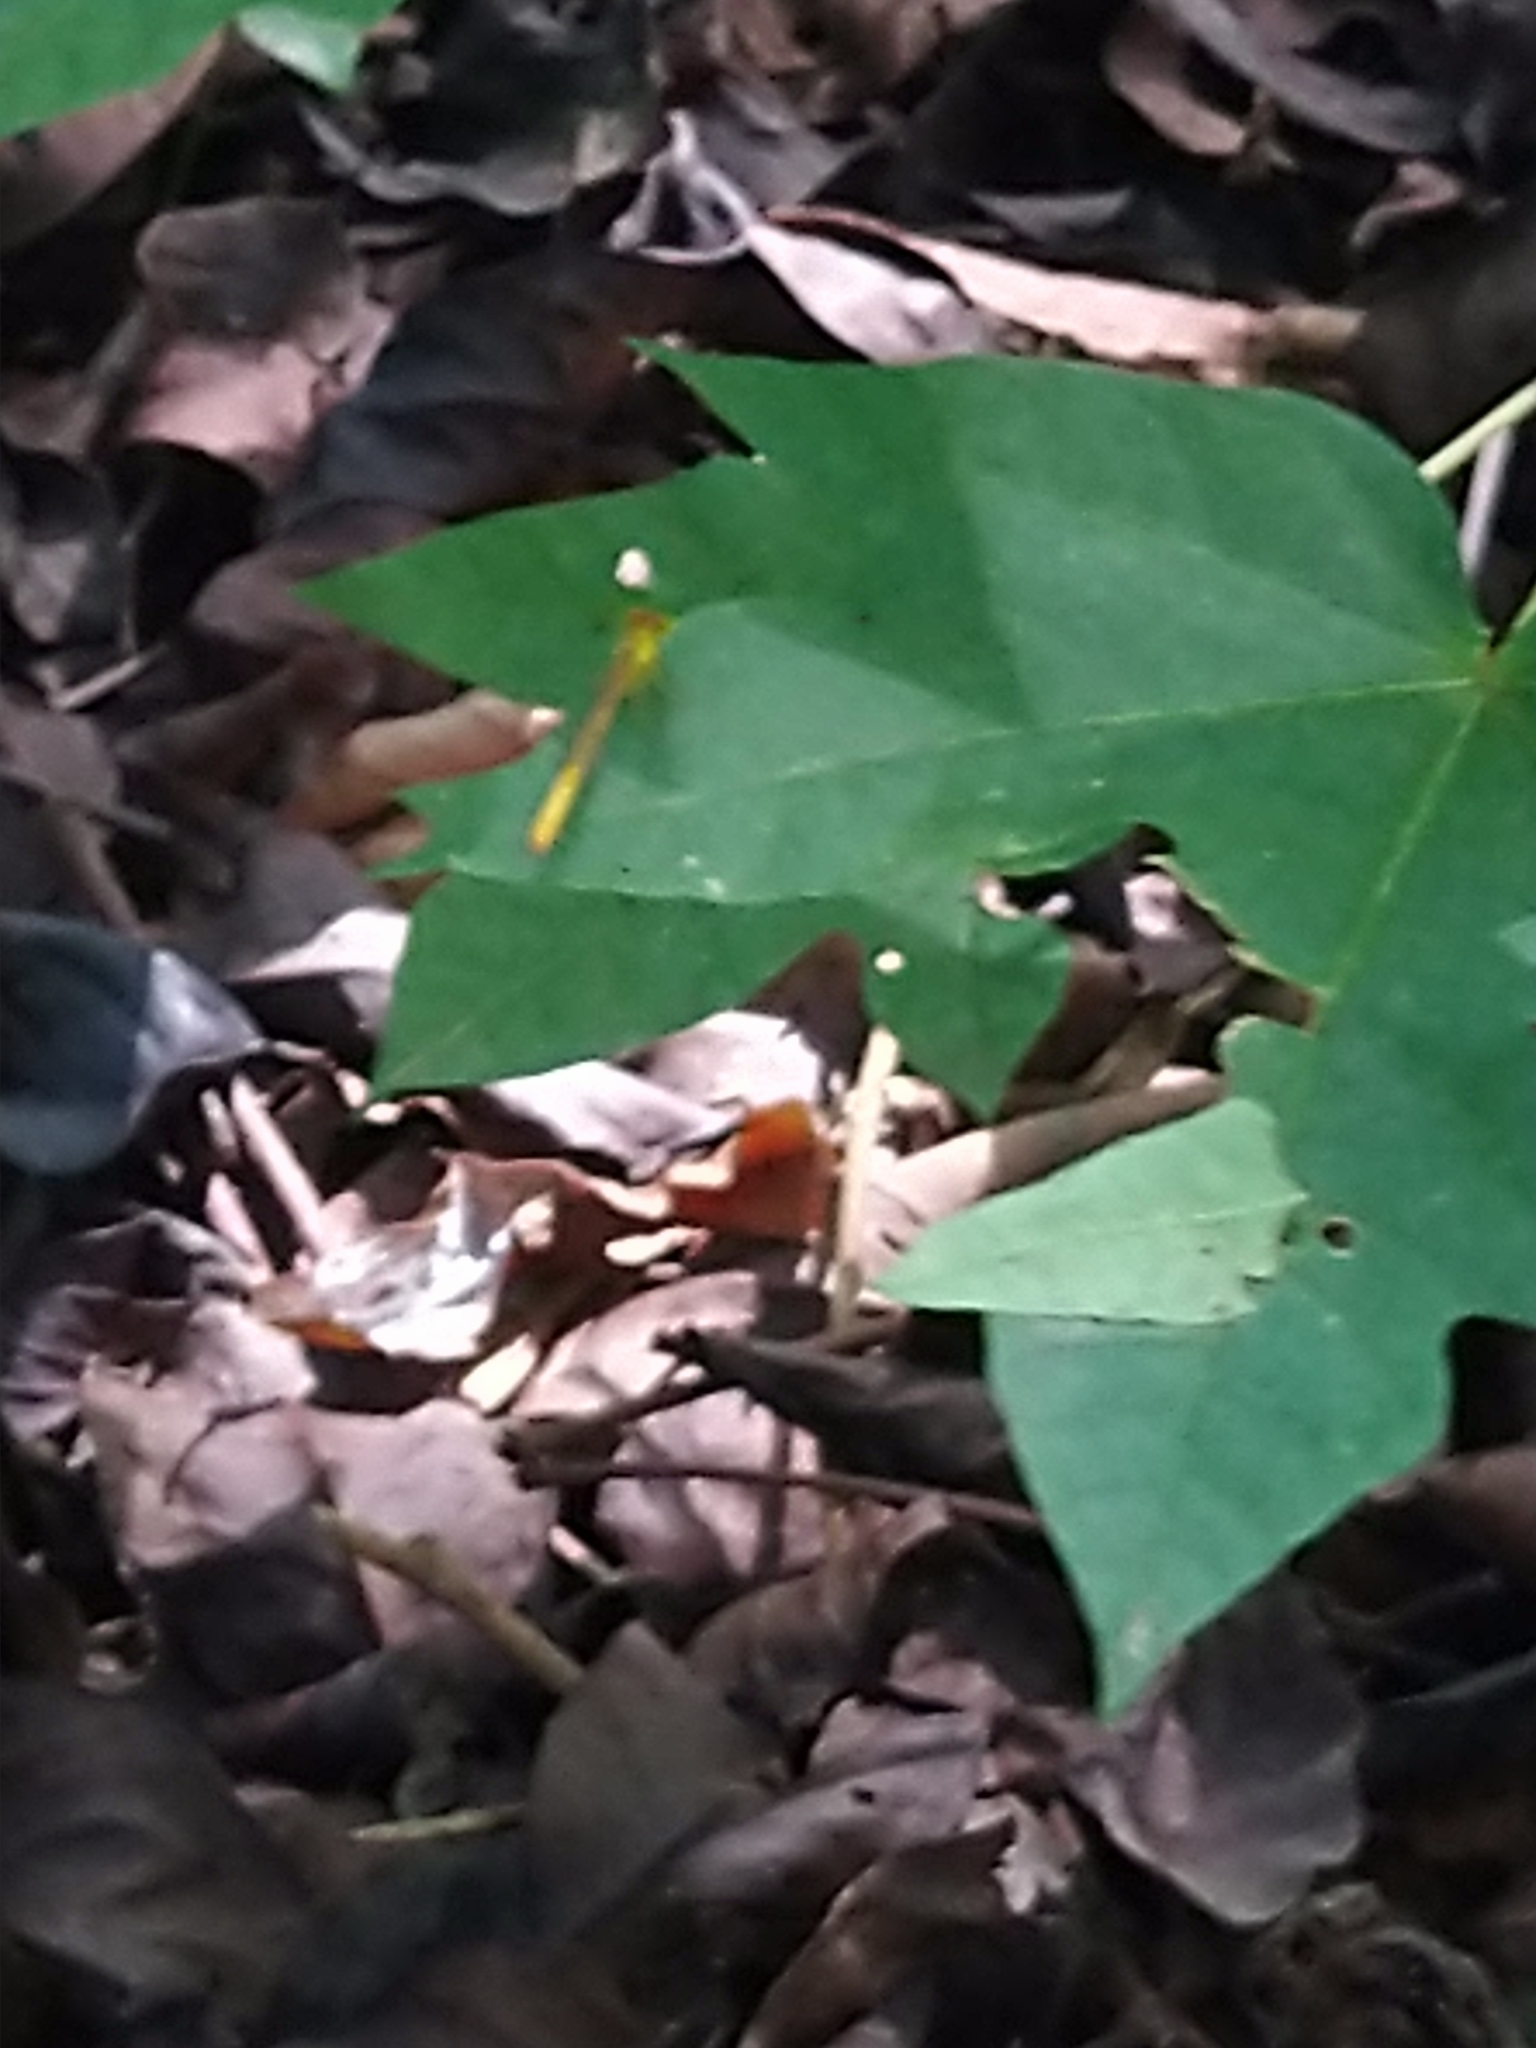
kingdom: Animalia
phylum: Arthropoda
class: Insecta
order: Odonata
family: Coenagrionidae
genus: Ceriagrion
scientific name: Ceriagrion coromandelianum
